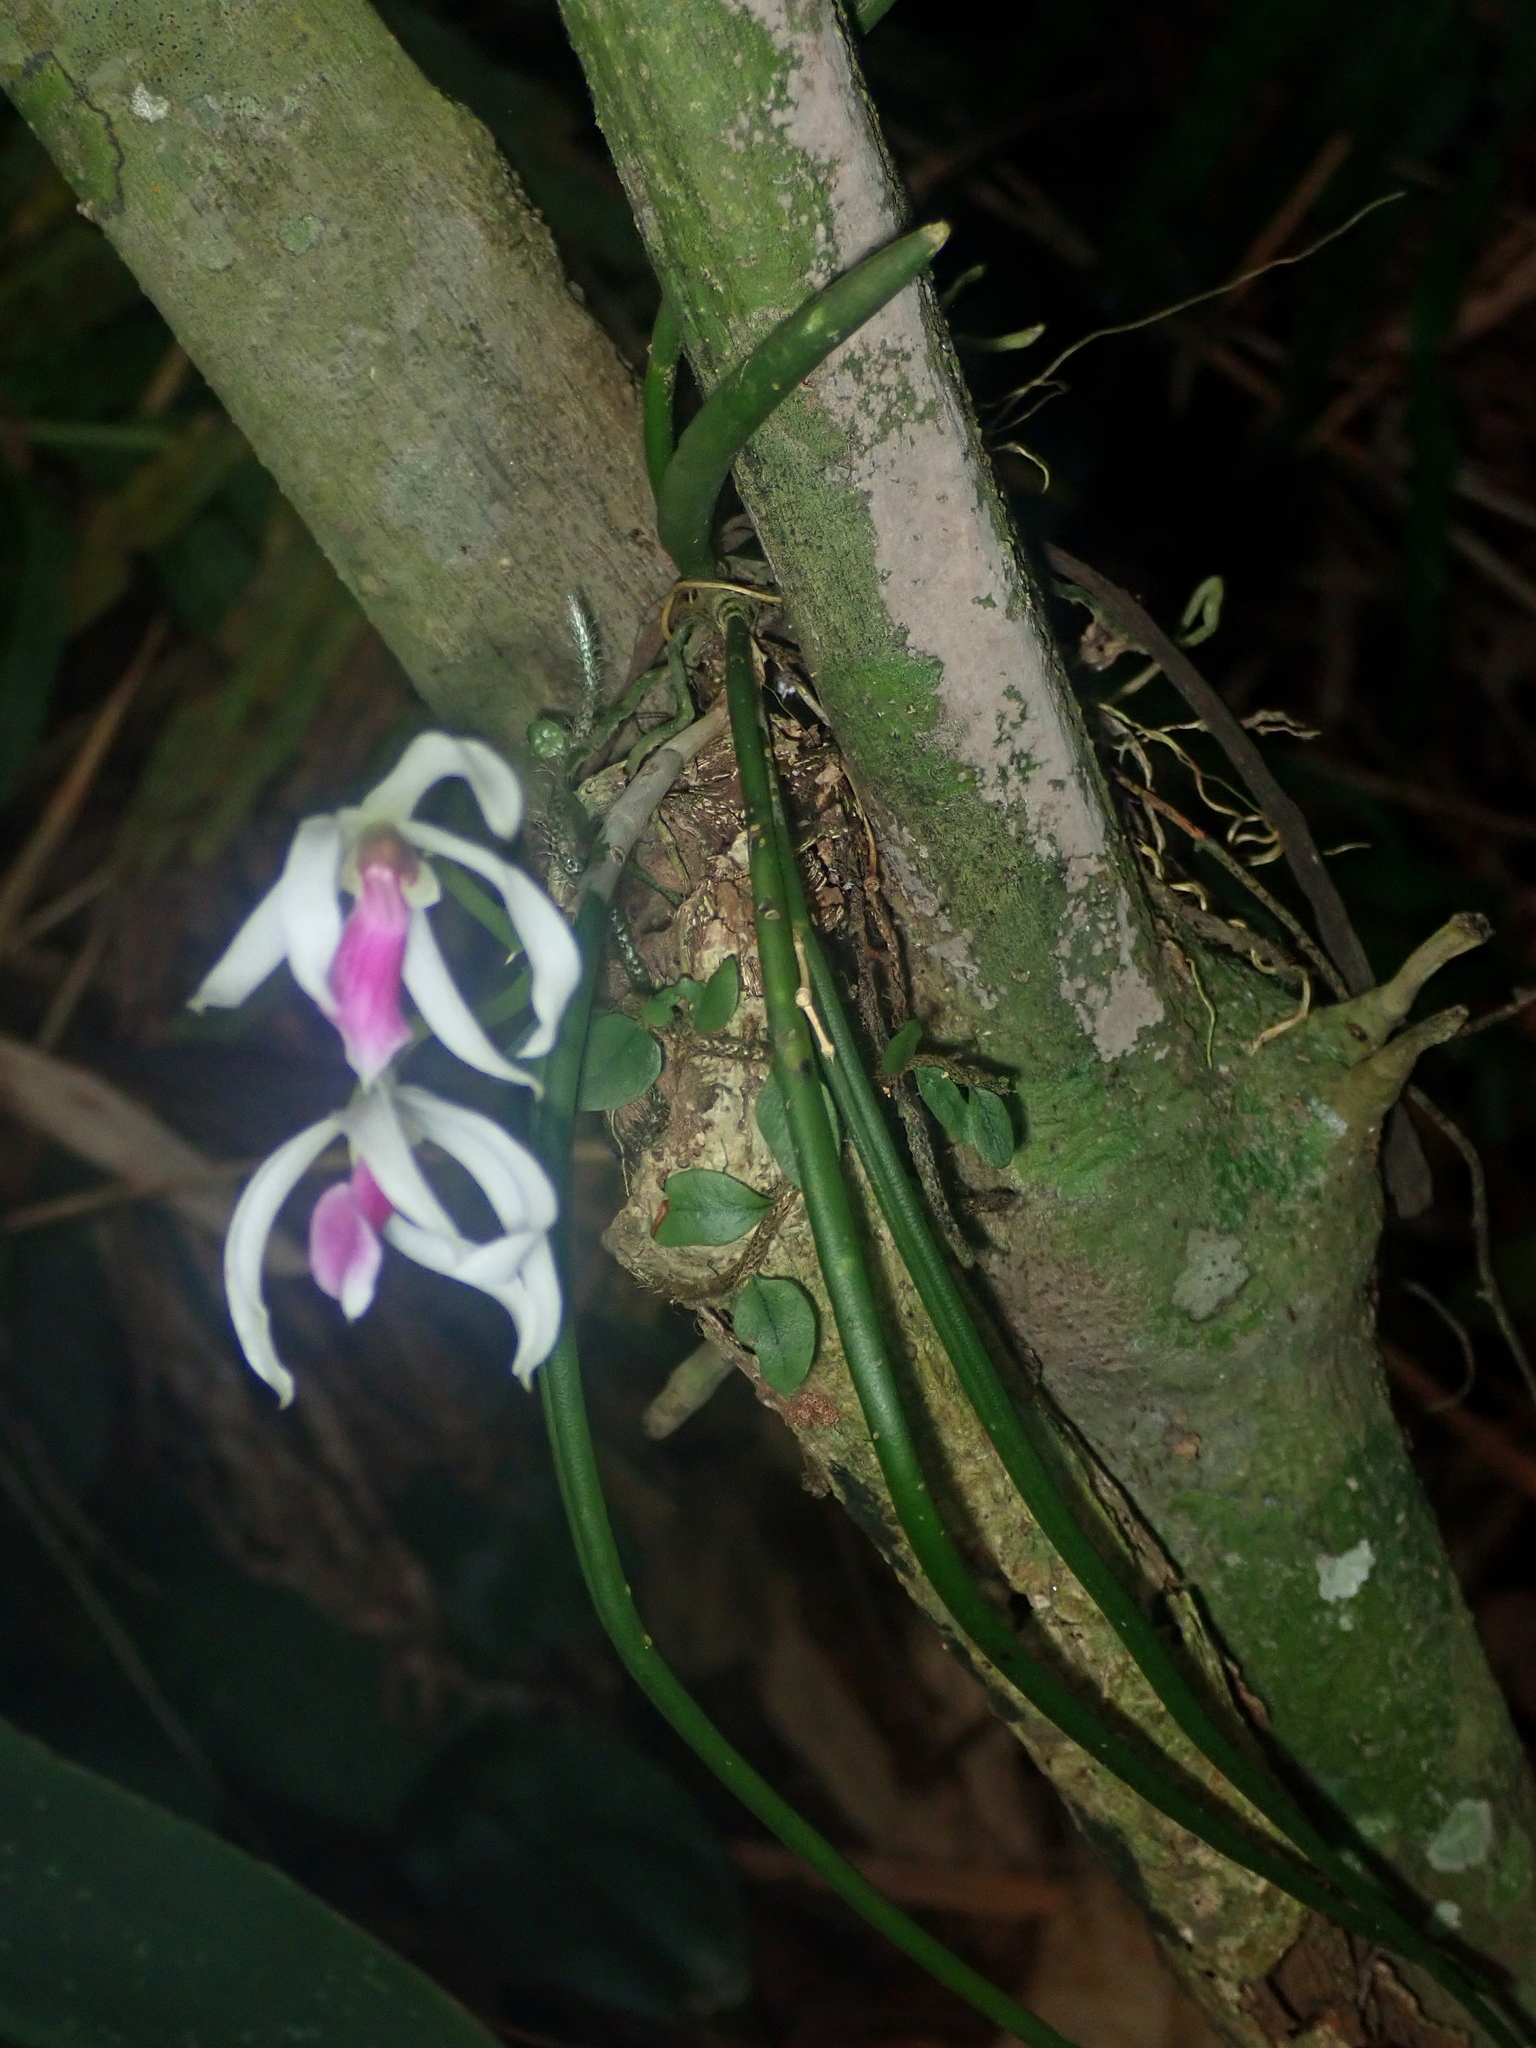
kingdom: Plantae
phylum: Tracheophyta
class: Liliopsida
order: Asparagales
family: Orchidaceae
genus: Leptotes
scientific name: Leptotes bicolor
